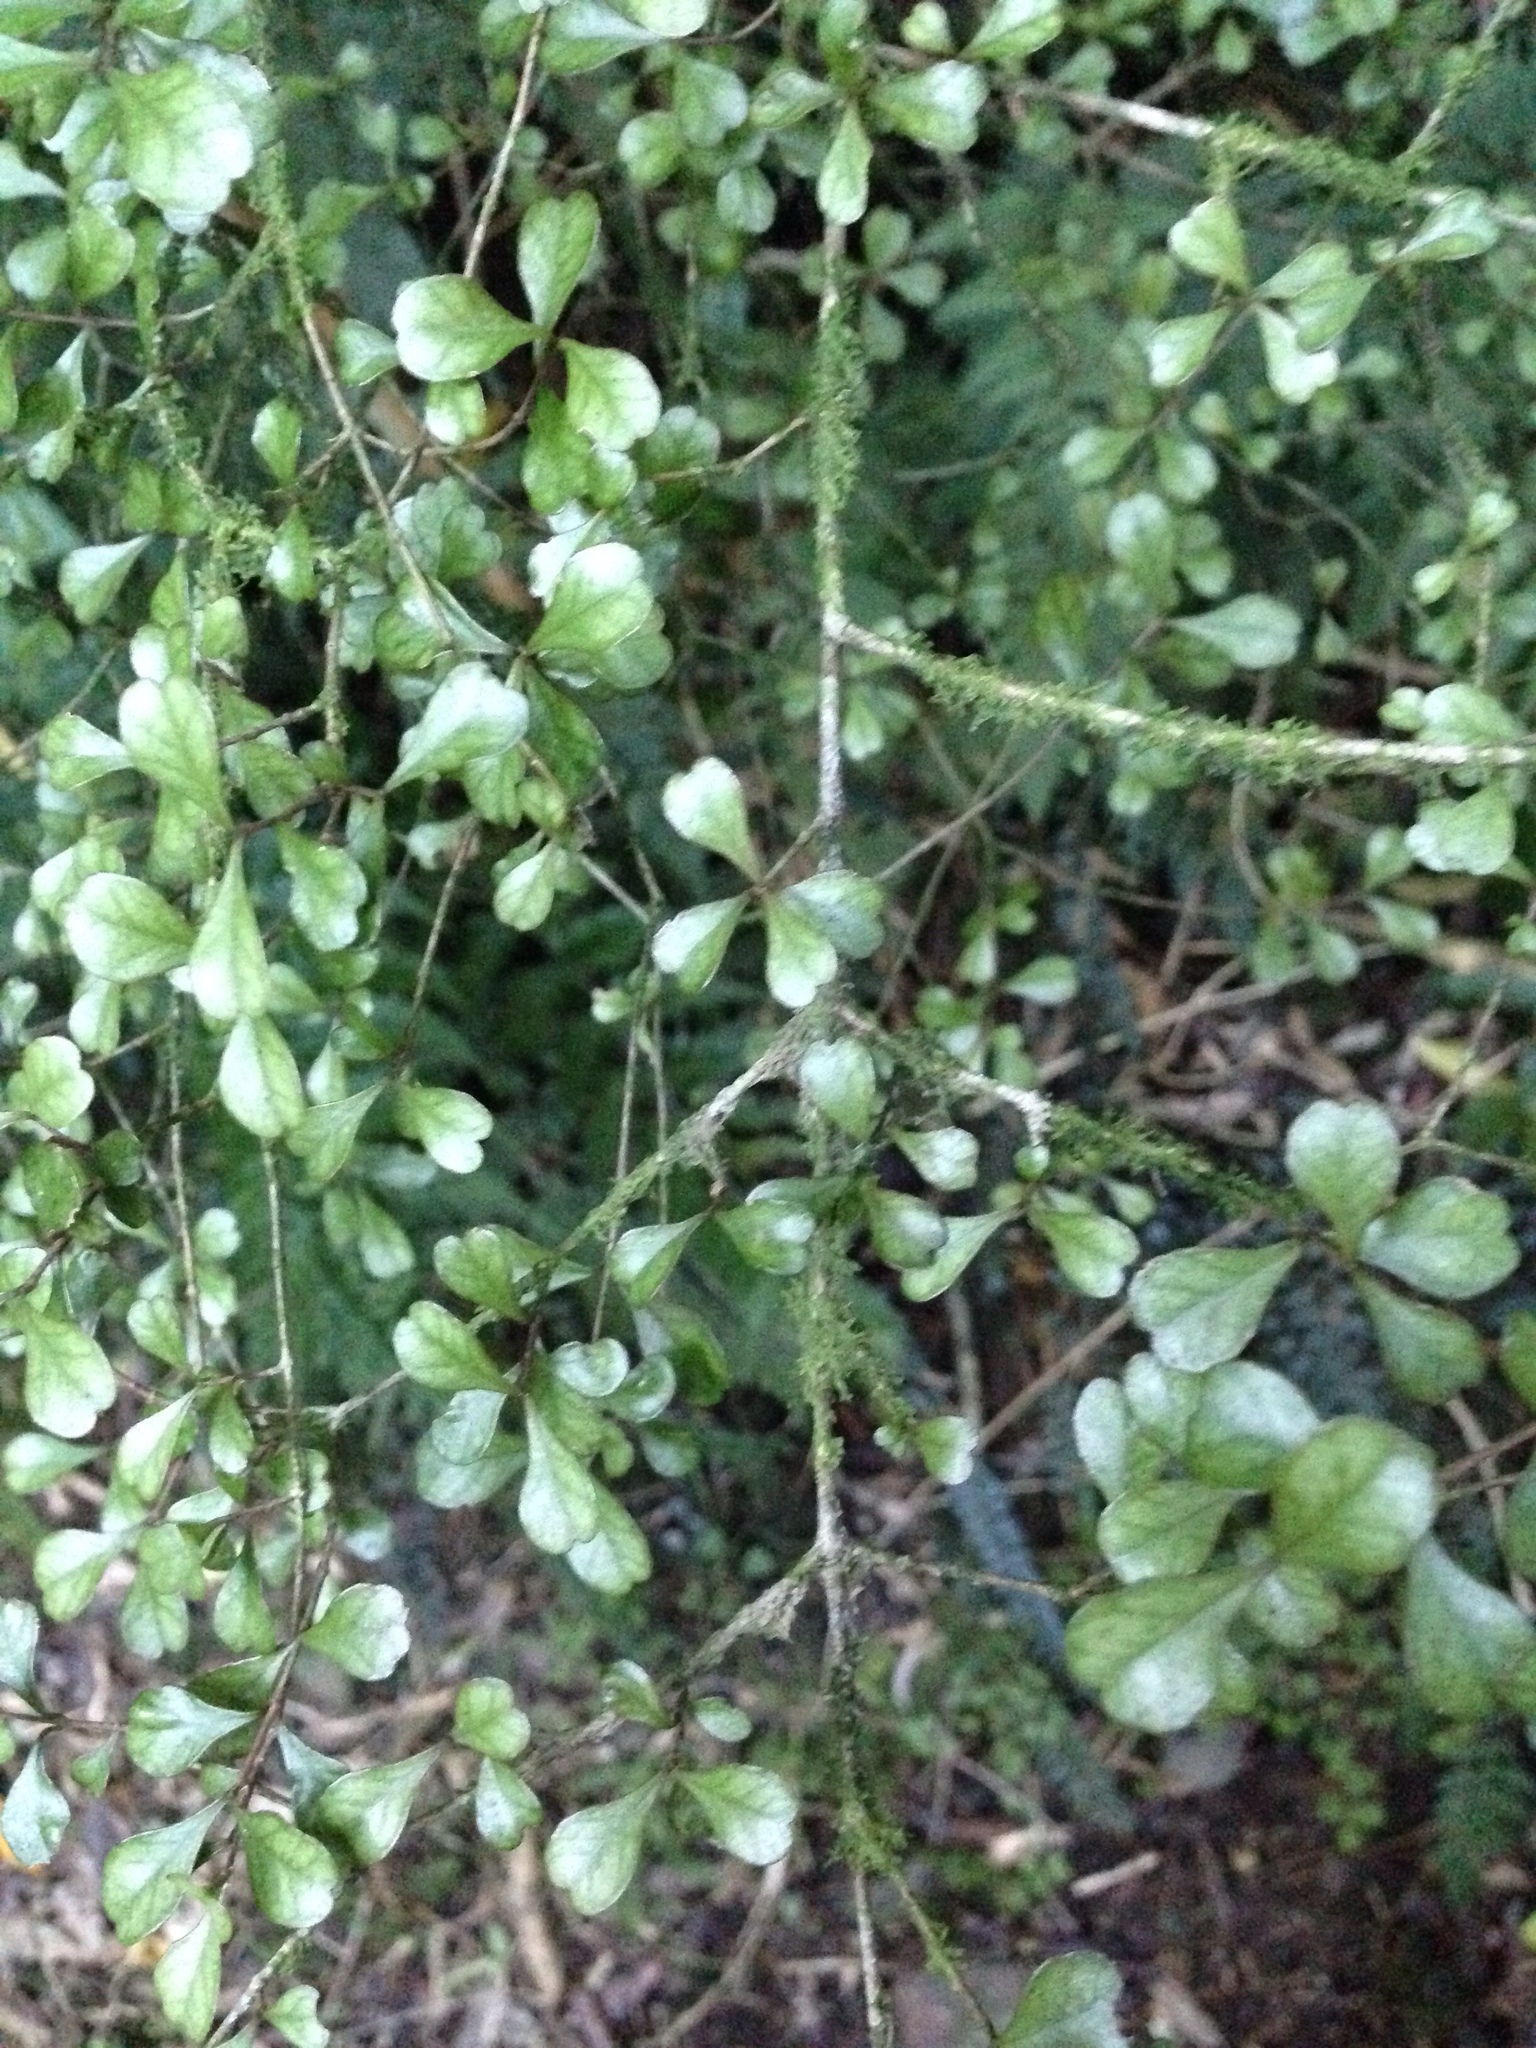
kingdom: Plantae
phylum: Tracheophyta
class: Magnoliopsida
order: Myrtales
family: Myrtaceae
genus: Lophomyrtus
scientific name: Lophomyrtus obcordata
